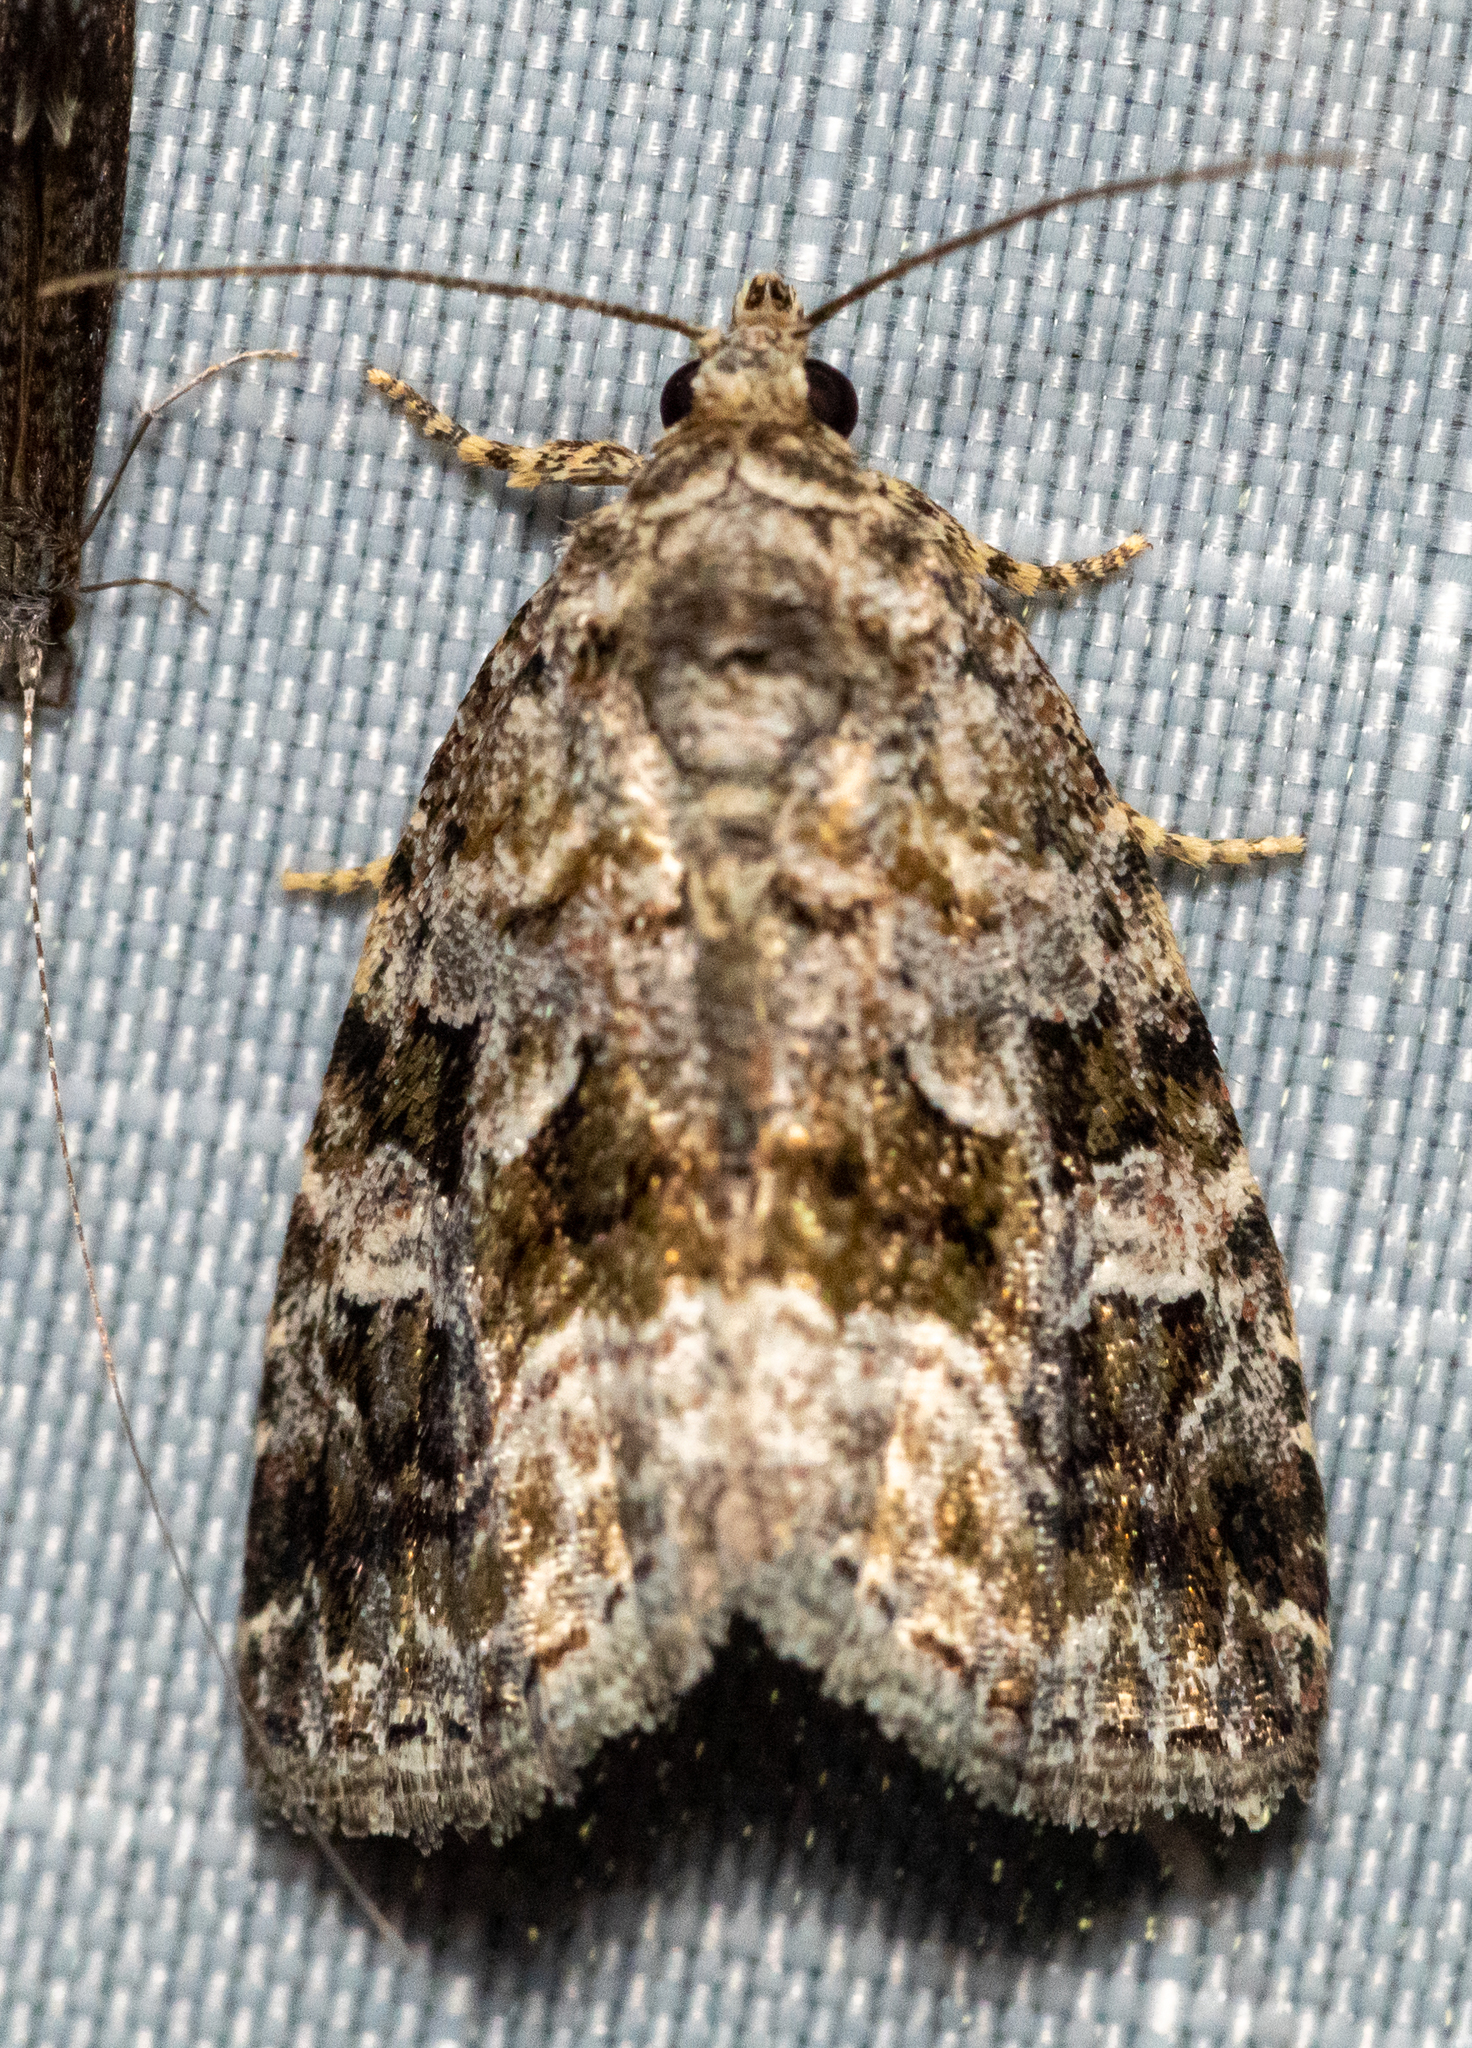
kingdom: Animalia
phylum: Arthropoda
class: Insecta
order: Lepidoptera
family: Noctuidae
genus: Protodeltote
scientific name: Protodeltote muscosula
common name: Large mossy glyph
